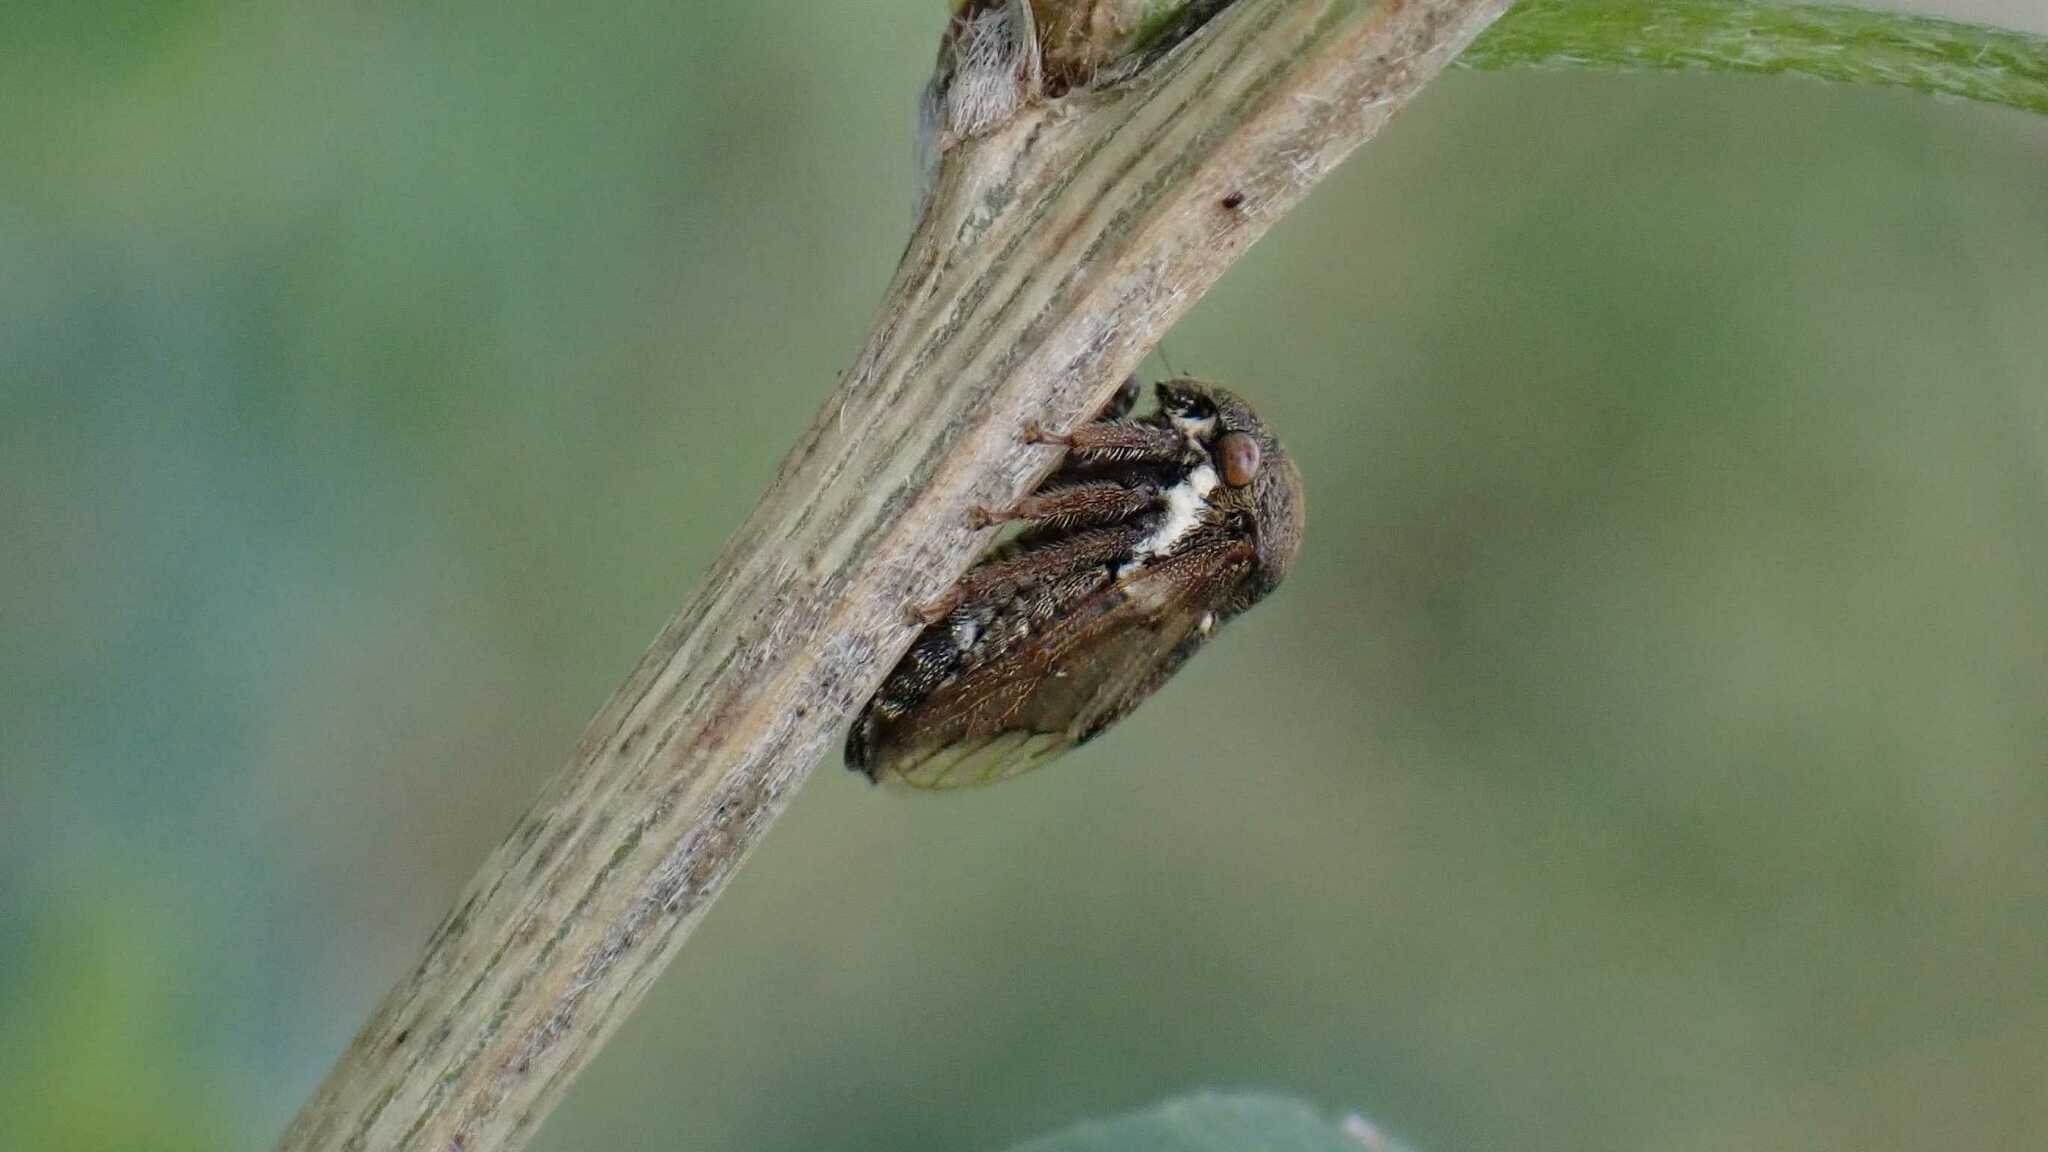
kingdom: Animalia
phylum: Arthropoda
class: Insecta
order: Hemiptera
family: Membracidae
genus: Gargara
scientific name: Gargara genistae
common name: Treehopper
